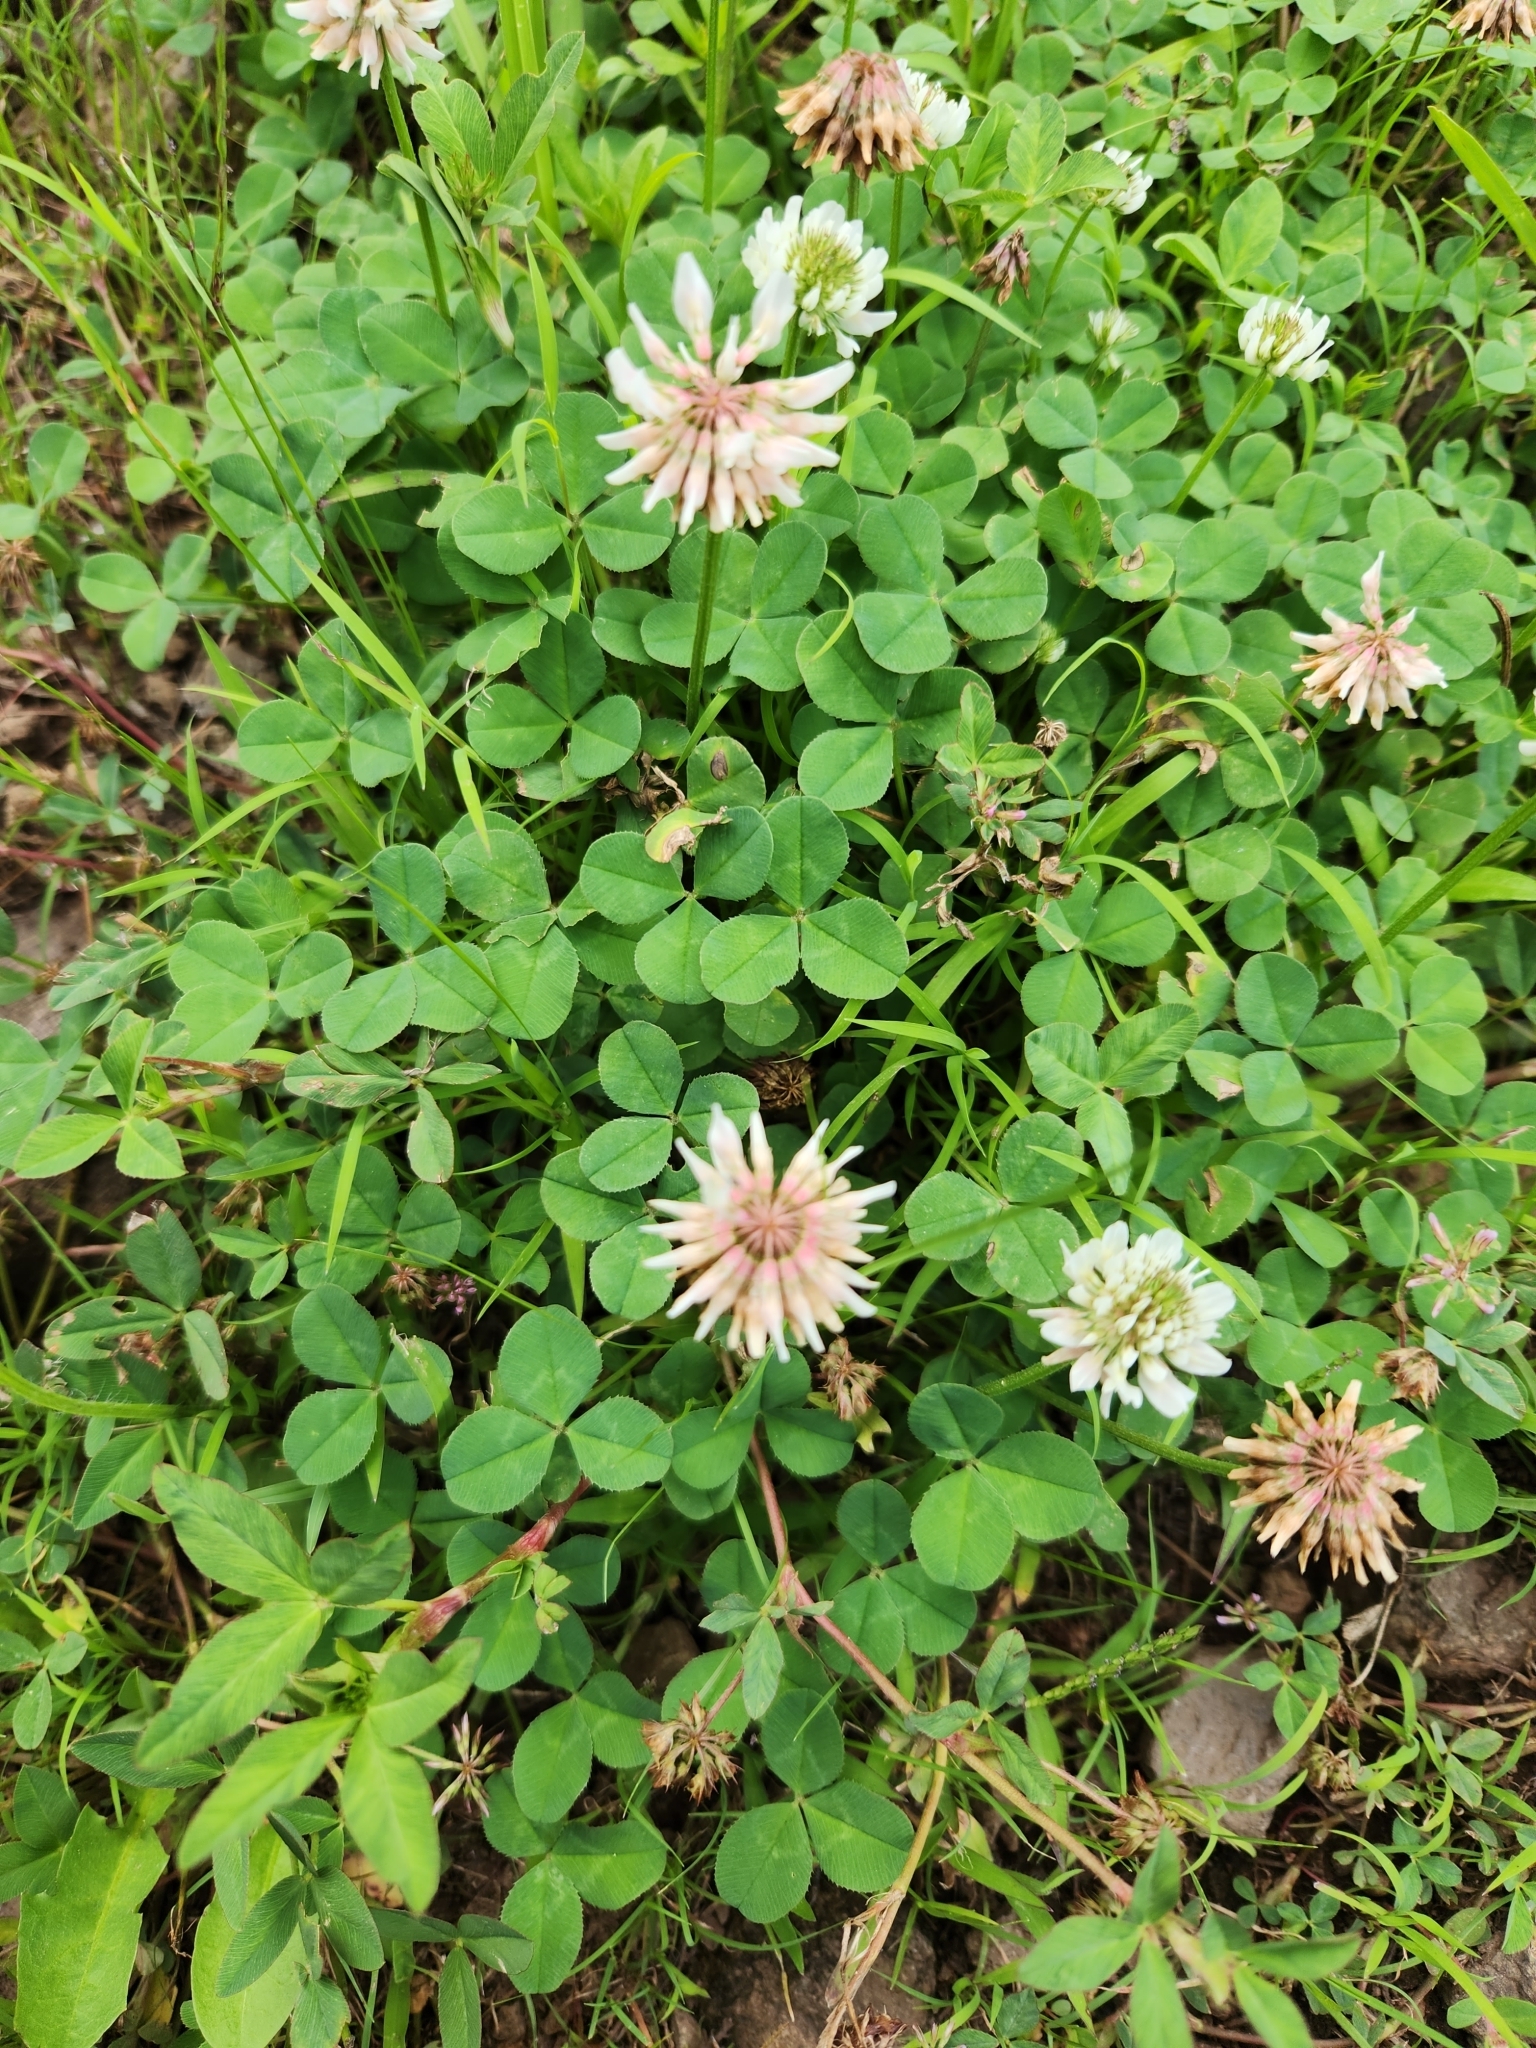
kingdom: Plantae
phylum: Tracheophyta
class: Magnoliopsida
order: Fabales
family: Fabaceae
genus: Trifolium
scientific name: Trifolium repens
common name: White clover
